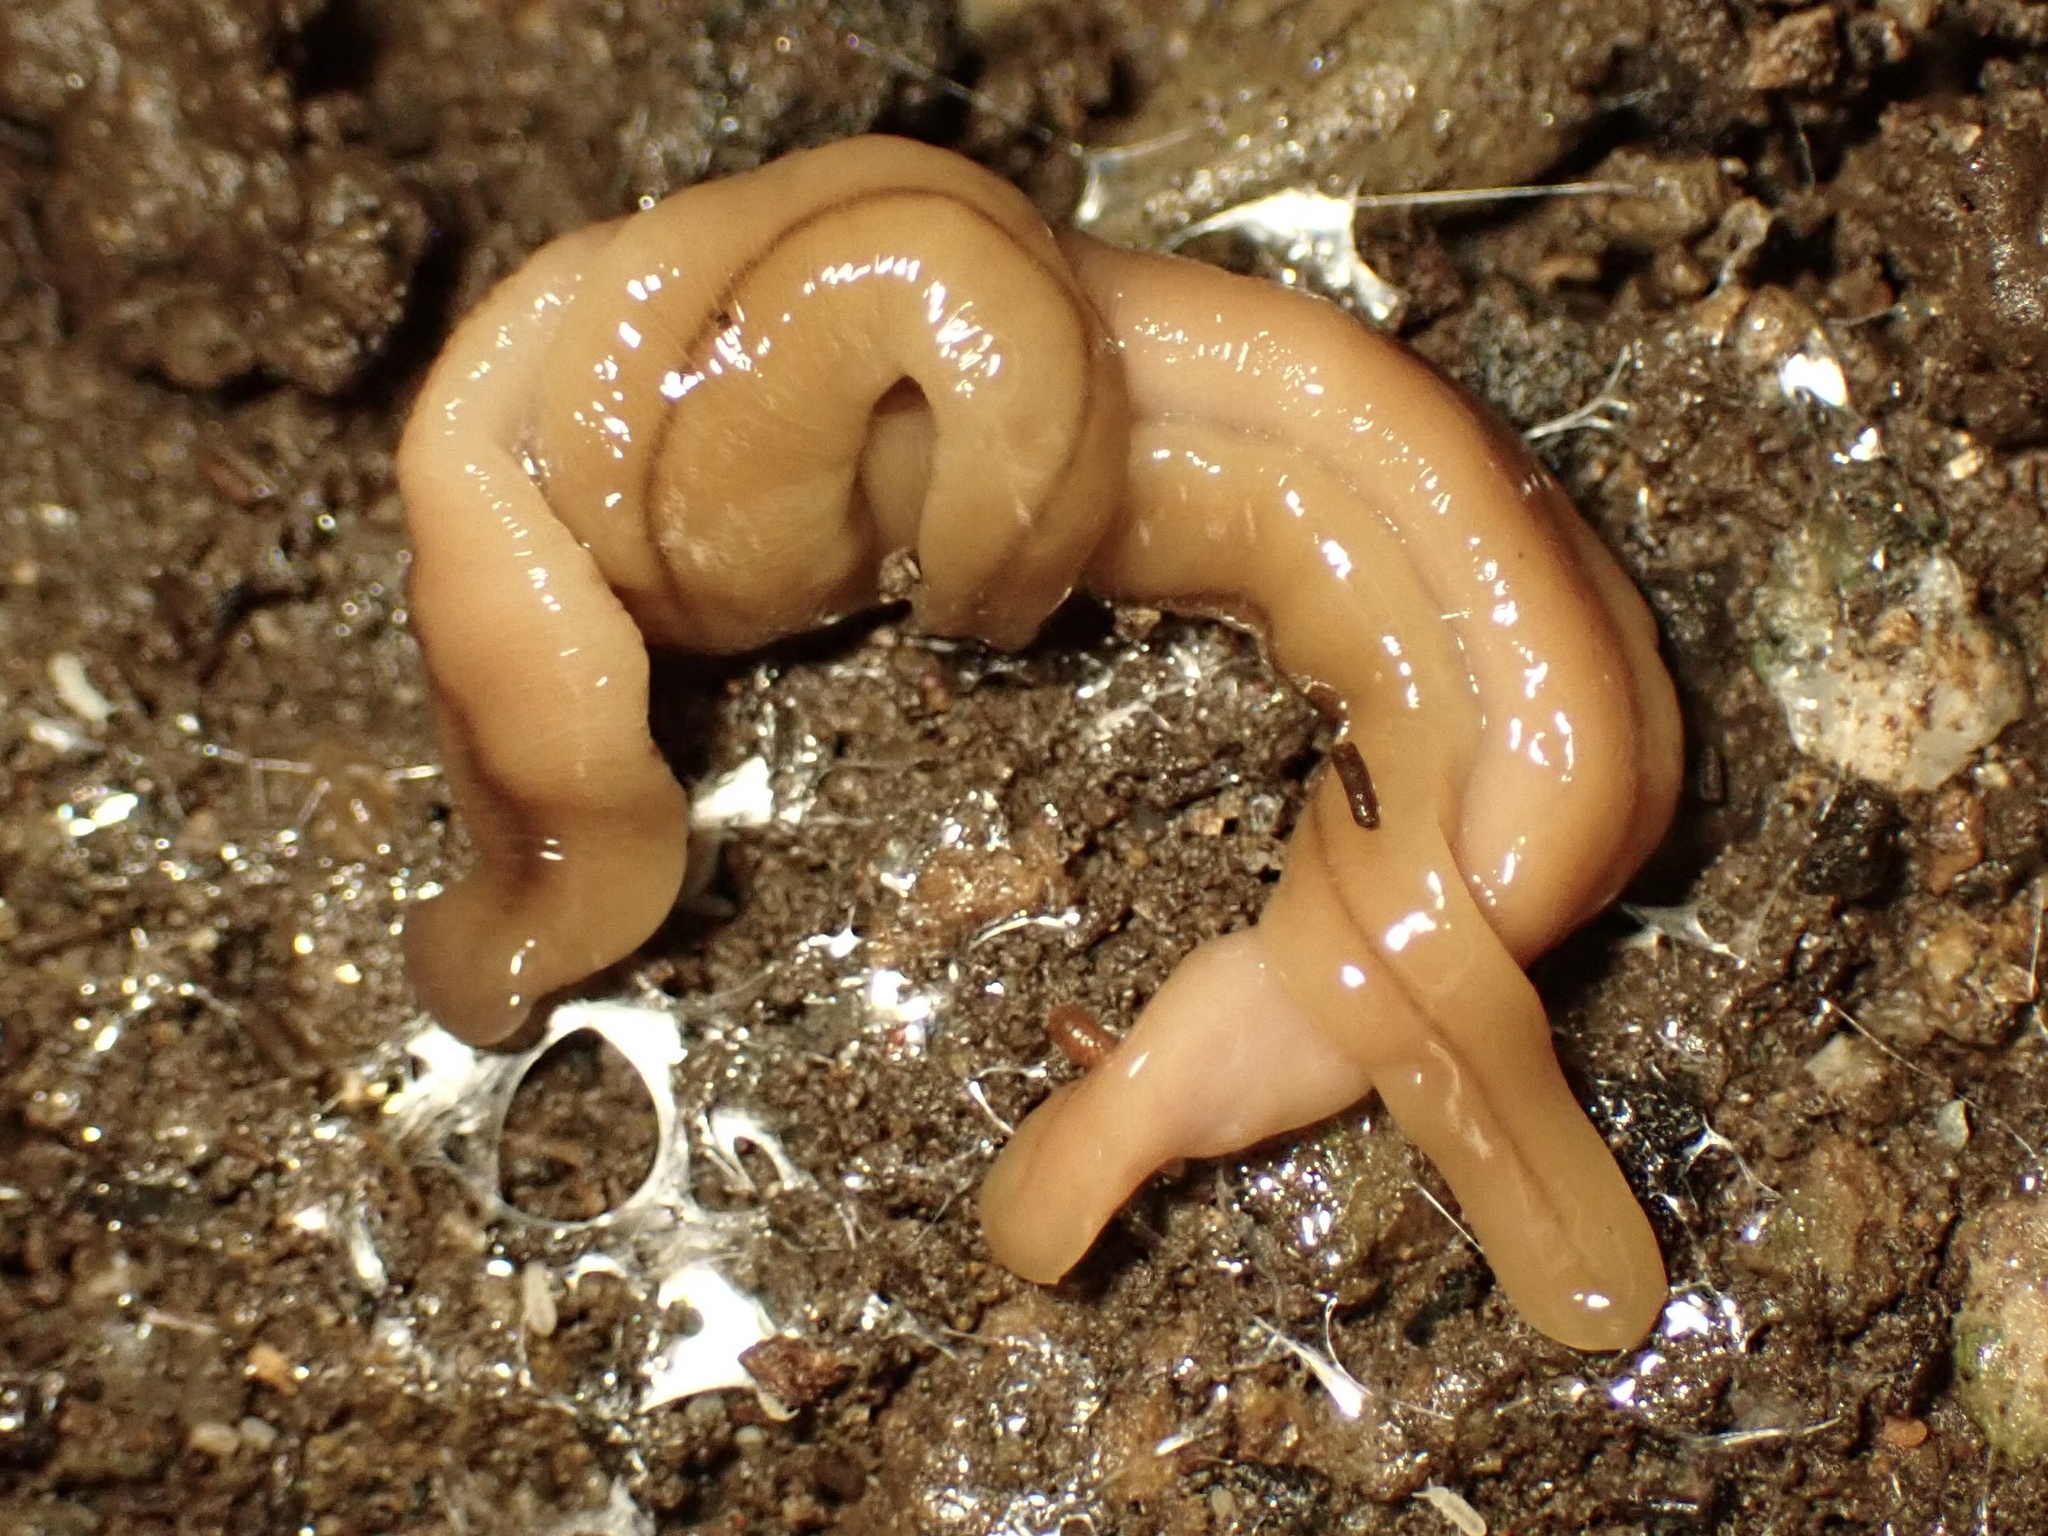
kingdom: Animalia
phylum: Platyhelminthes
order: Tricladida
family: Geoplanidae
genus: Bipalium
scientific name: Bipalium adventitium
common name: Land planarian
